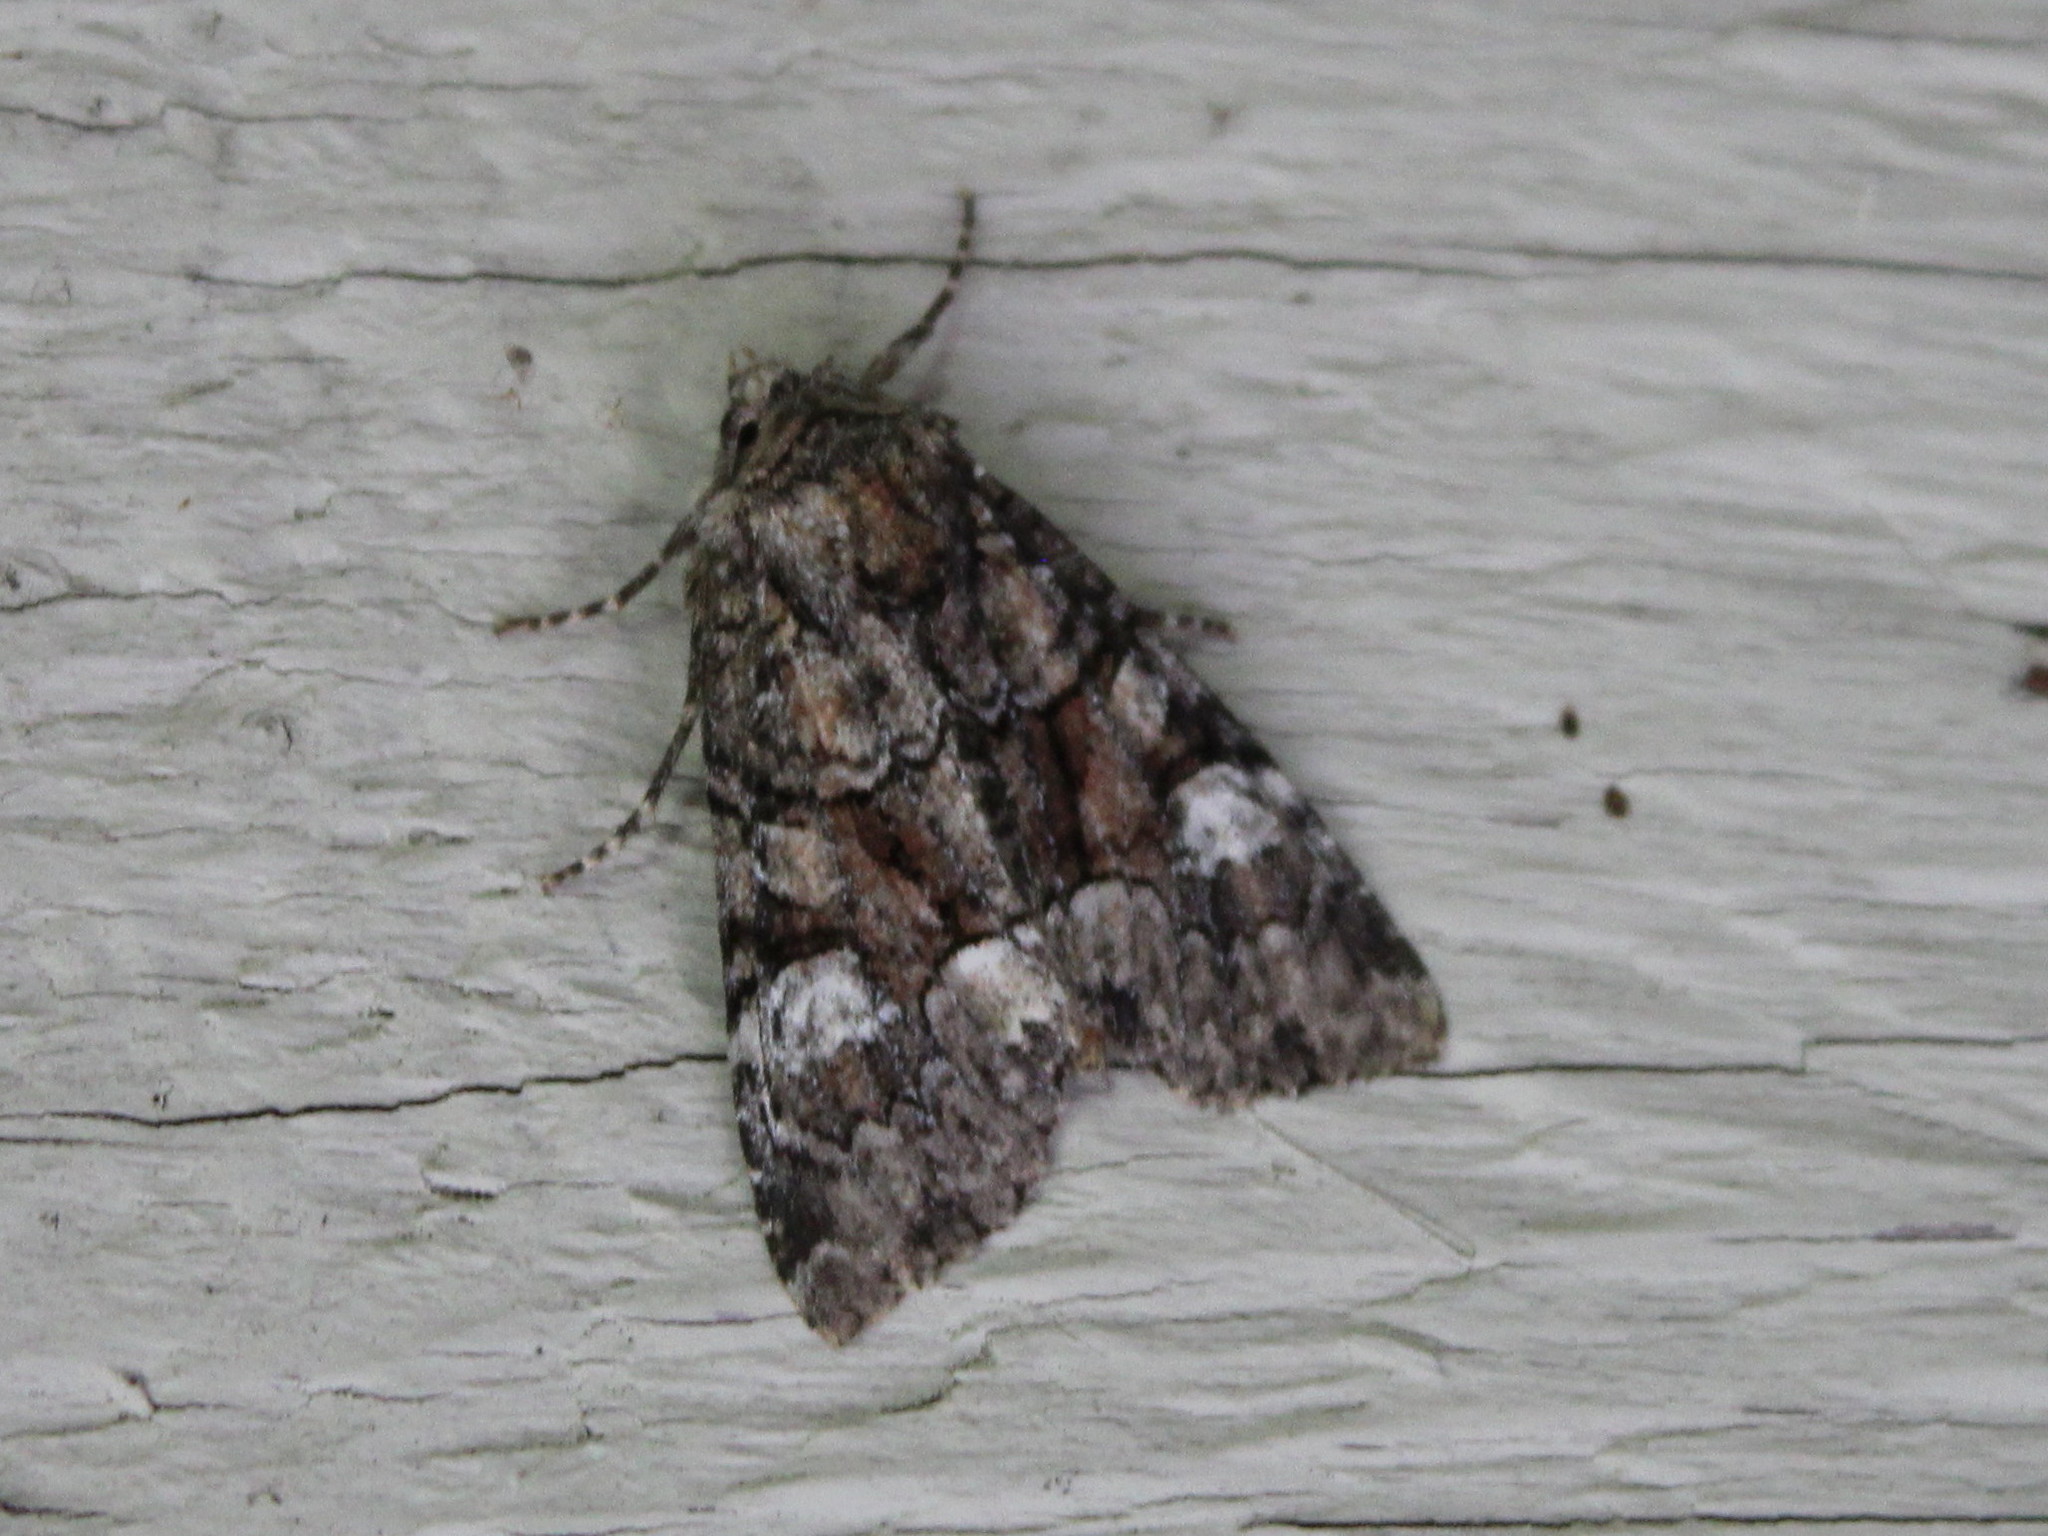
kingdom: Animalia
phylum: Arthropoda
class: Insecta
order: Lepidoptera
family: Noctuidae
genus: Fishia
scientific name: Fishia illocata
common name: Wandering brocade moth
